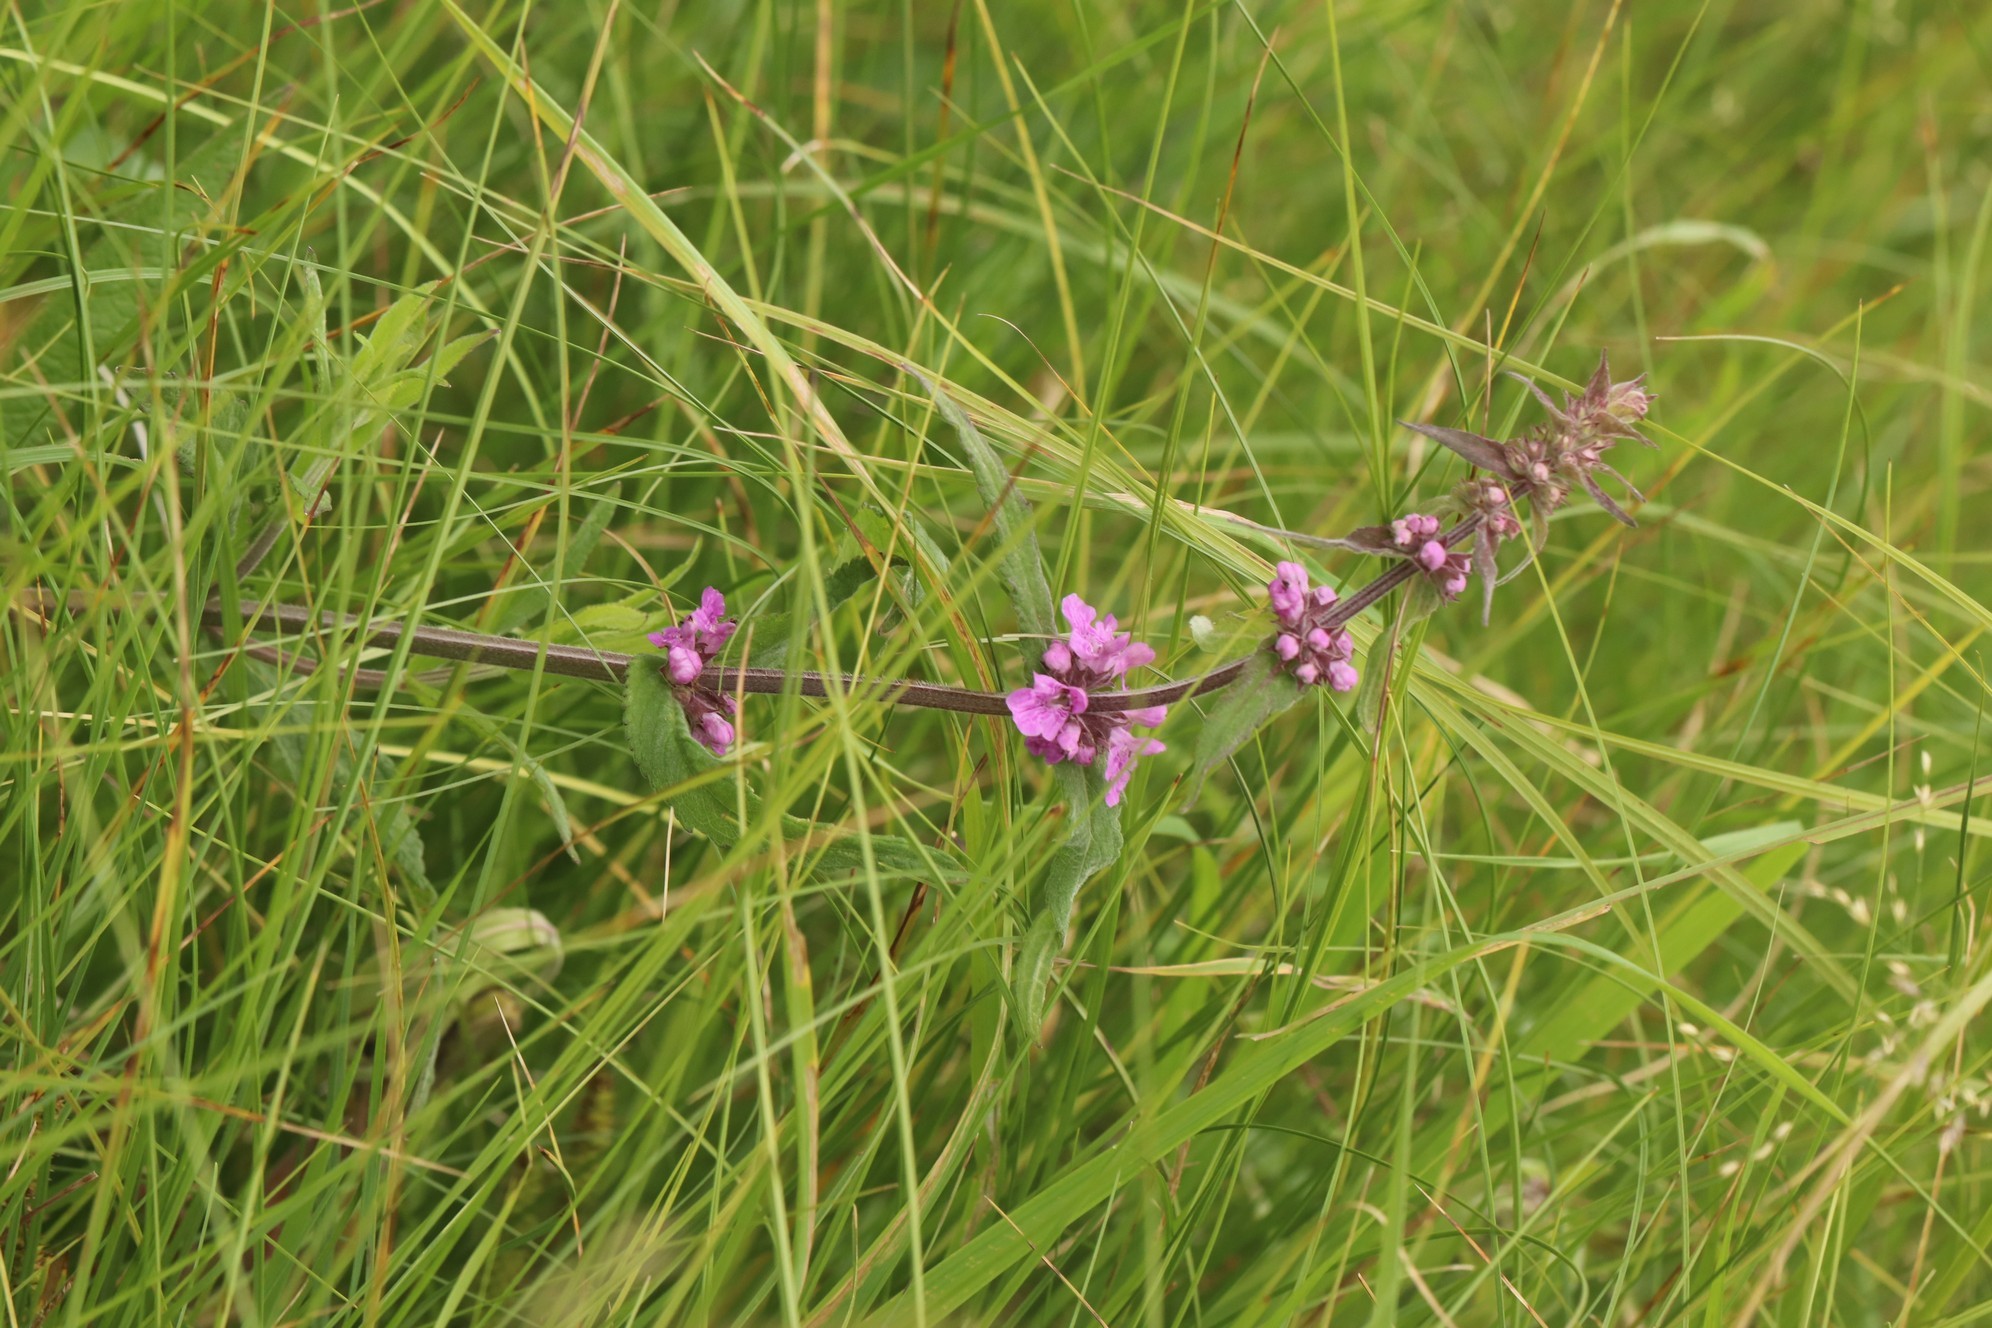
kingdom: Plantae
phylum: Tracheophyta
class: Magnoliopsida
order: Lamiales
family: Lamiaceae
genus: Stachys
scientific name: Stachys palustris
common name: Marsh woundwort
